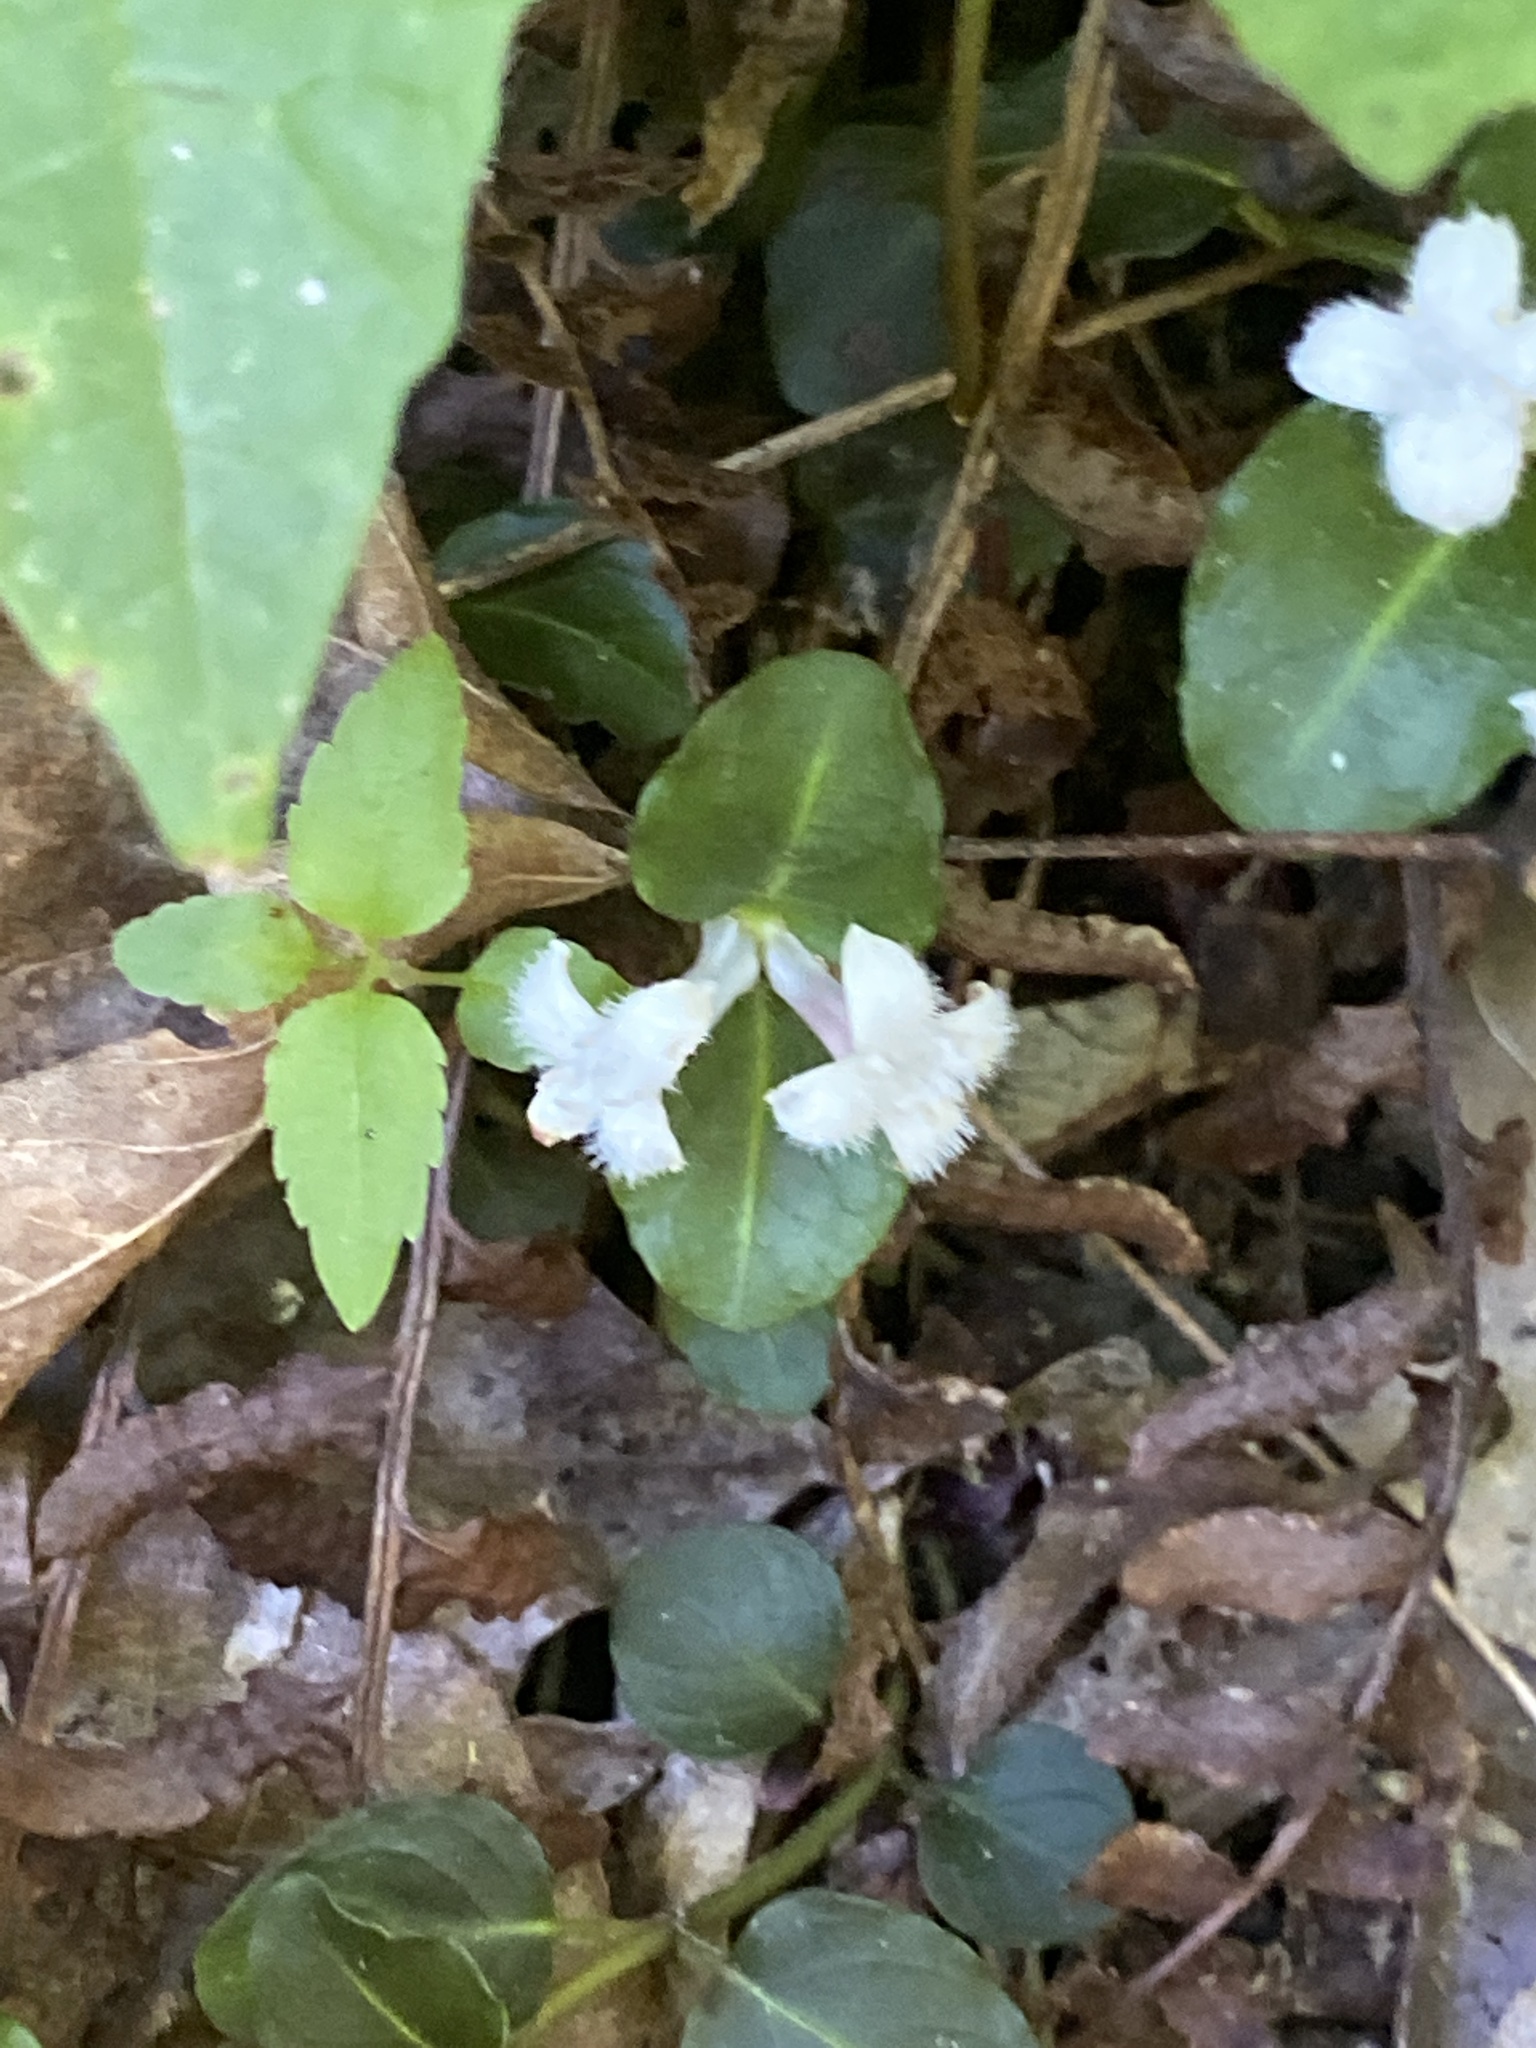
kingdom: Plantae
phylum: Tracheophyta
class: Magnoliopsida
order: Gentianales
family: Rubiaceae
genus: Mitchella
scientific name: Mitchella repens
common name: Partridge-berry
